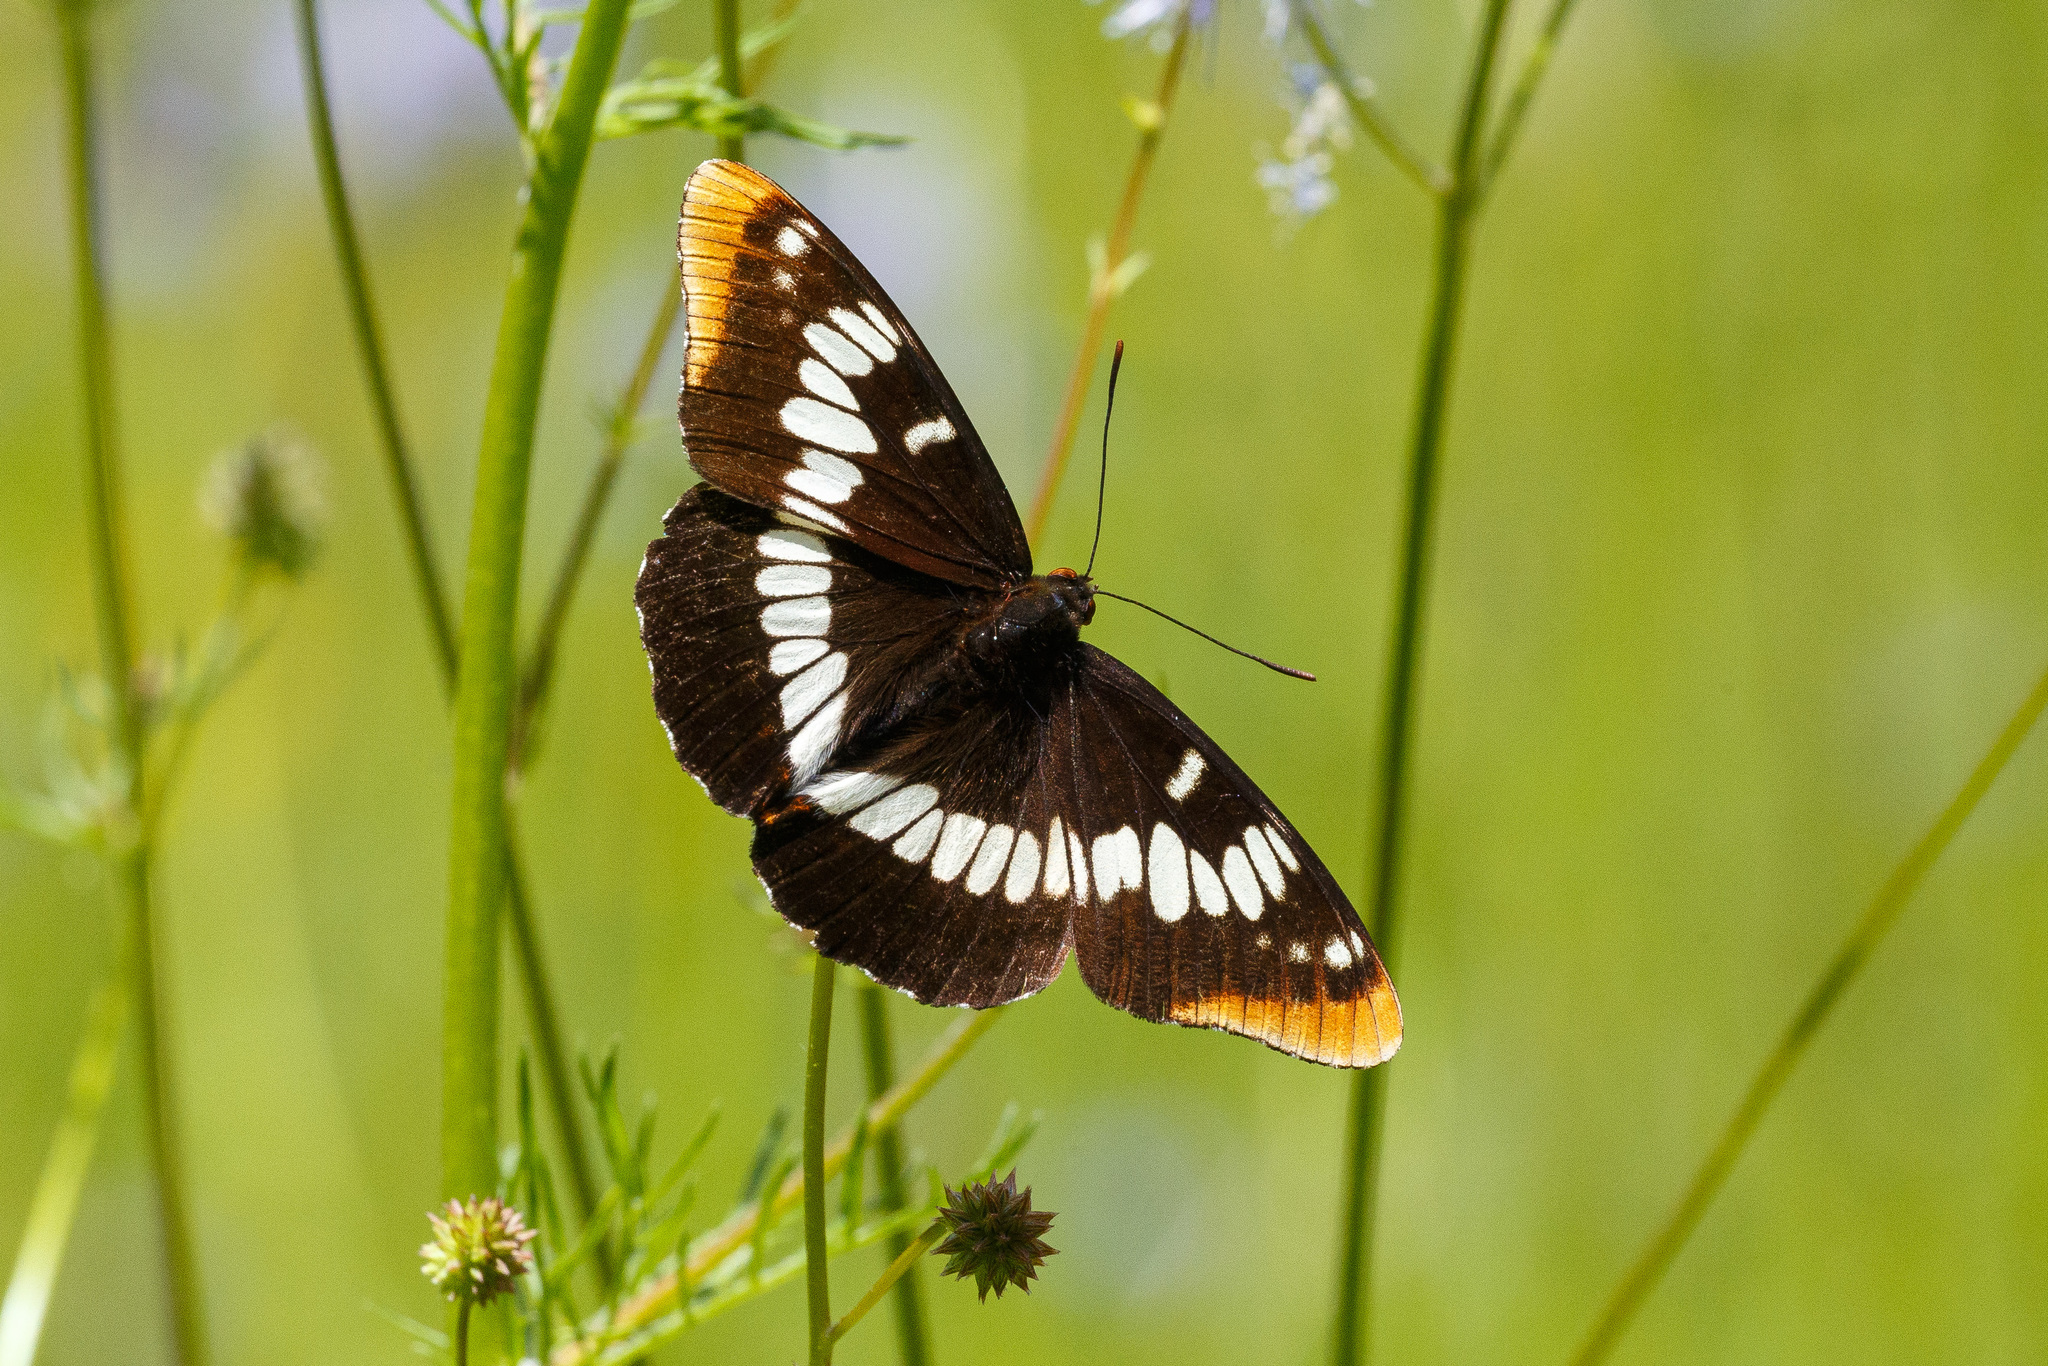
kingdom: Animalia
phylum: Arthropoda
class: Insecta
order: Lepidoptera
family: Nymphalidae
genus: Limenitis
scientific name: Limenitis lorquini
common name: Lorquin's admiral
